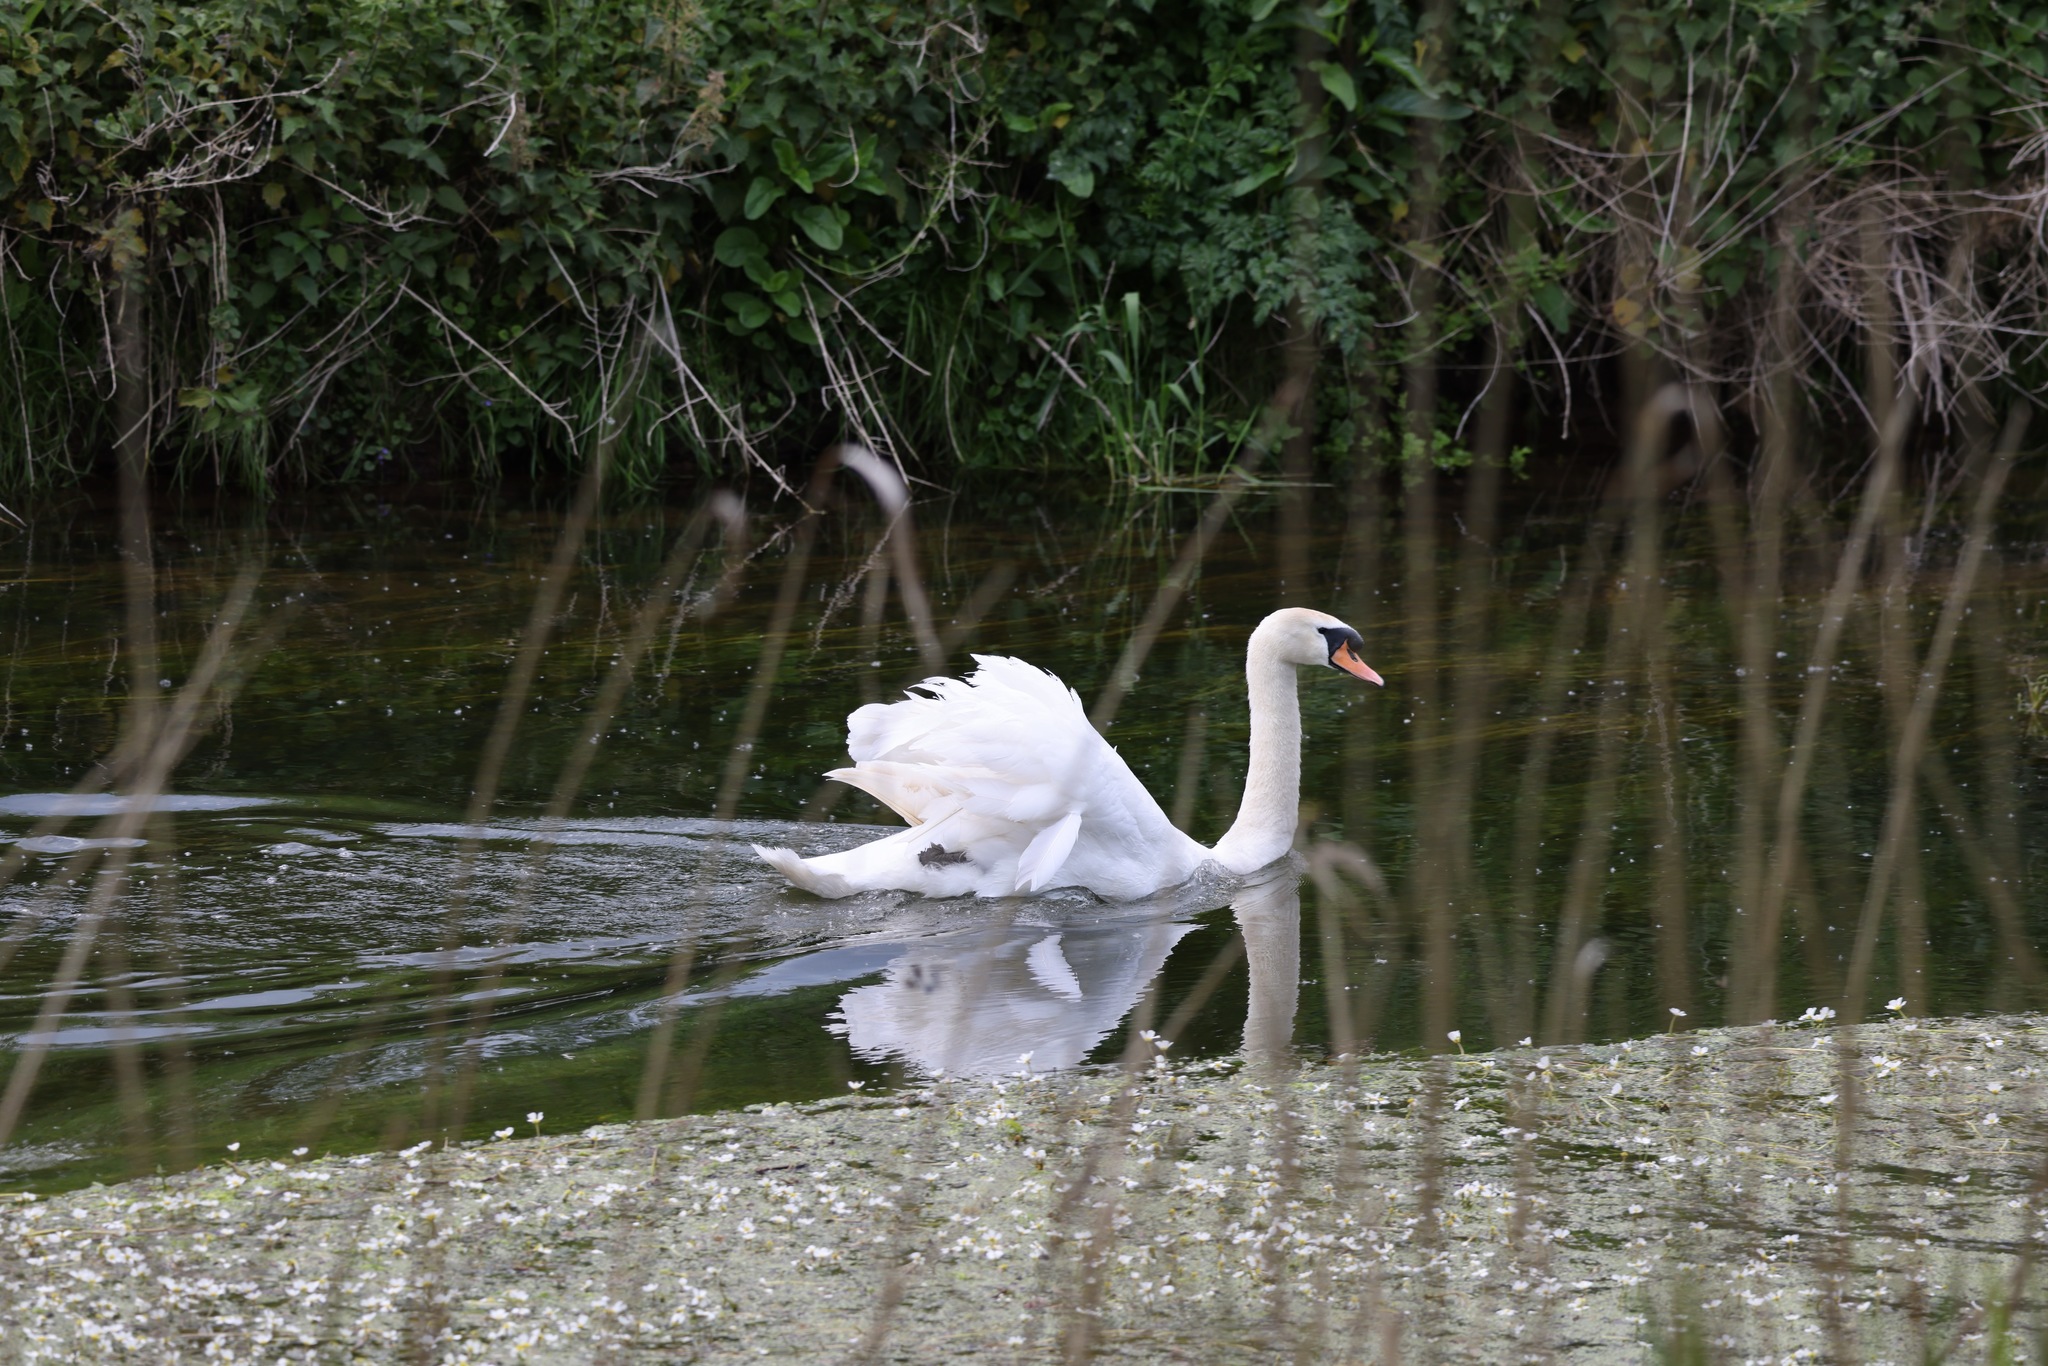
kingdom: Animalia
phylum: Chordata
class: Aves
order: Anseriformes
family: Anatidae
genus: Cygnus
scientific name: Cygnus olor
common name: Mute swan
